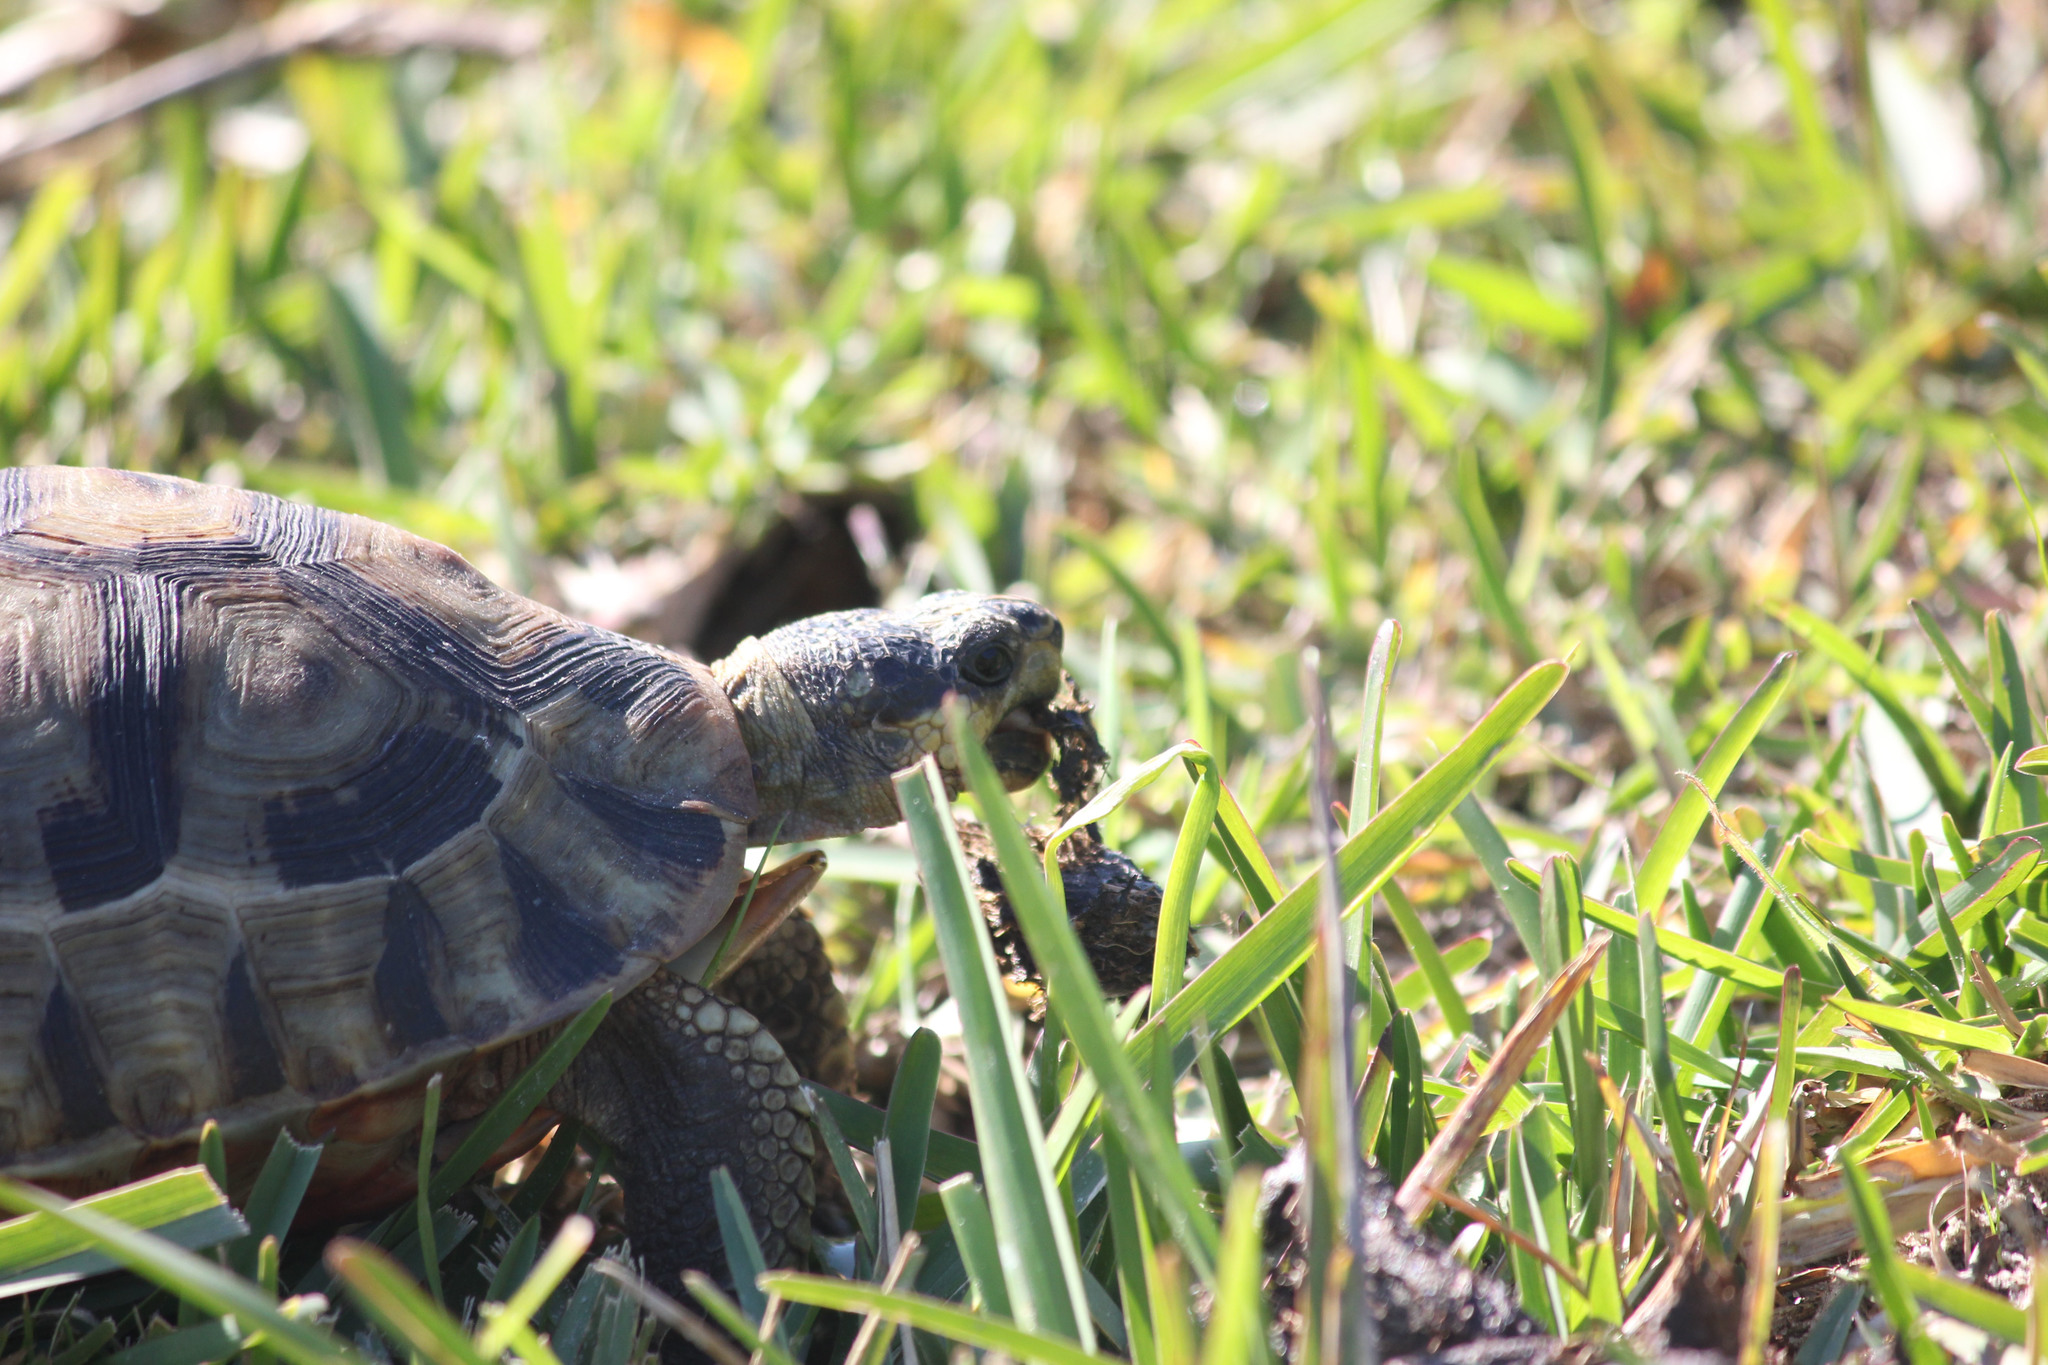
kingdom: Animalia
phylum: Chordata
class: Testudines
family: Testudinidae
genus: Chersina
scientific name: Chersina angulata
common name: South african bowsprit tortoise
